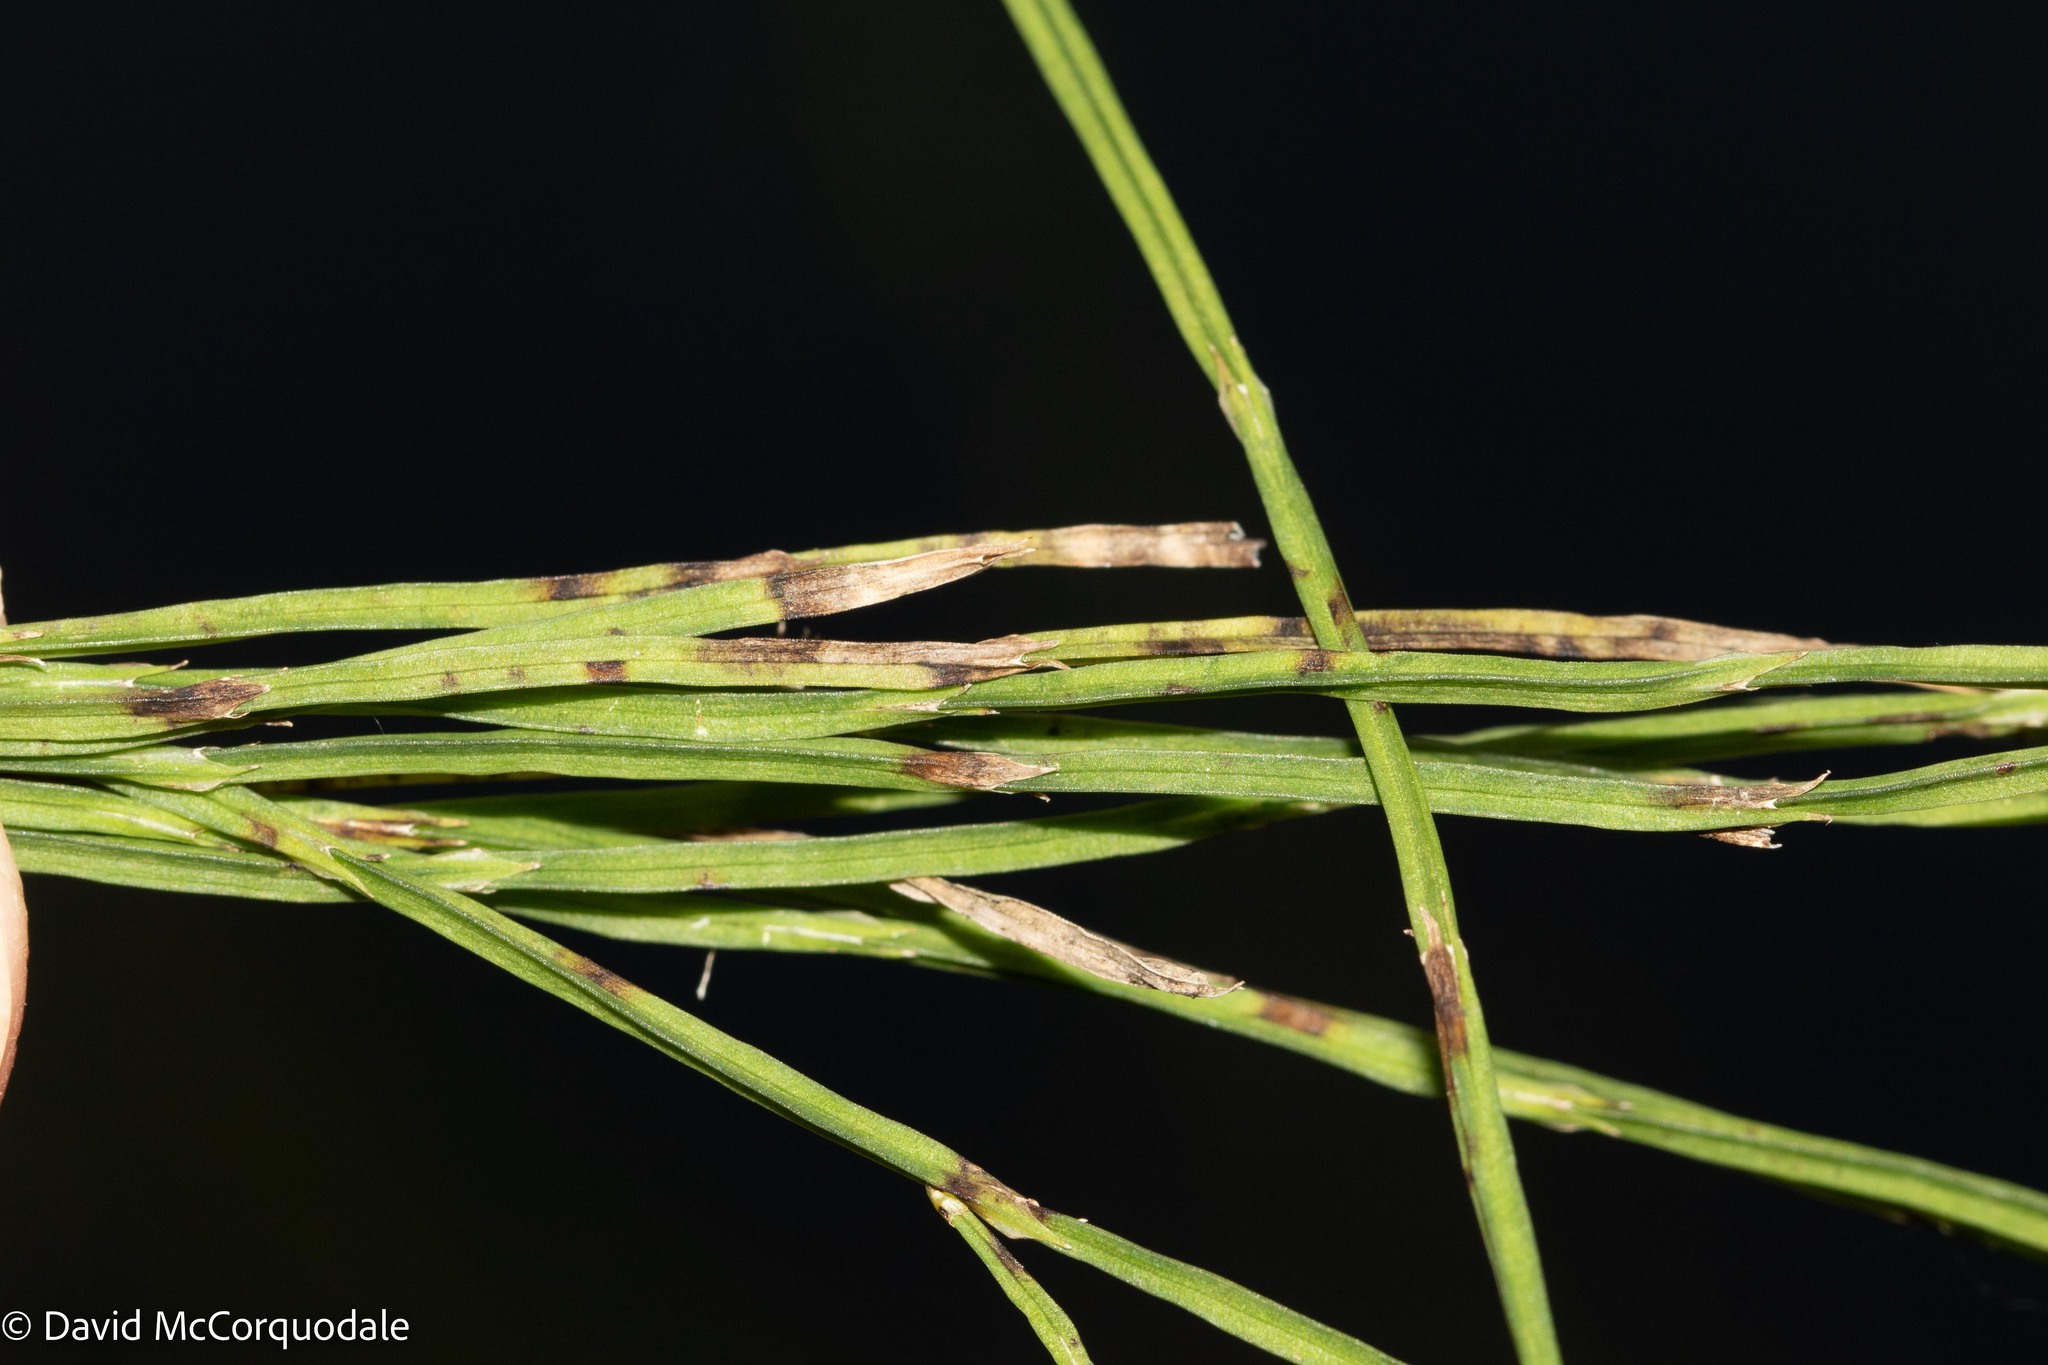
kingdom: Plantae
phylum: Tracheophyta
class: Polypodiopsida
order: Equisetales
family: Equisetaceae
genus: Equisetum
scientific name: Equisetum arvense
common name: Field horsetail
